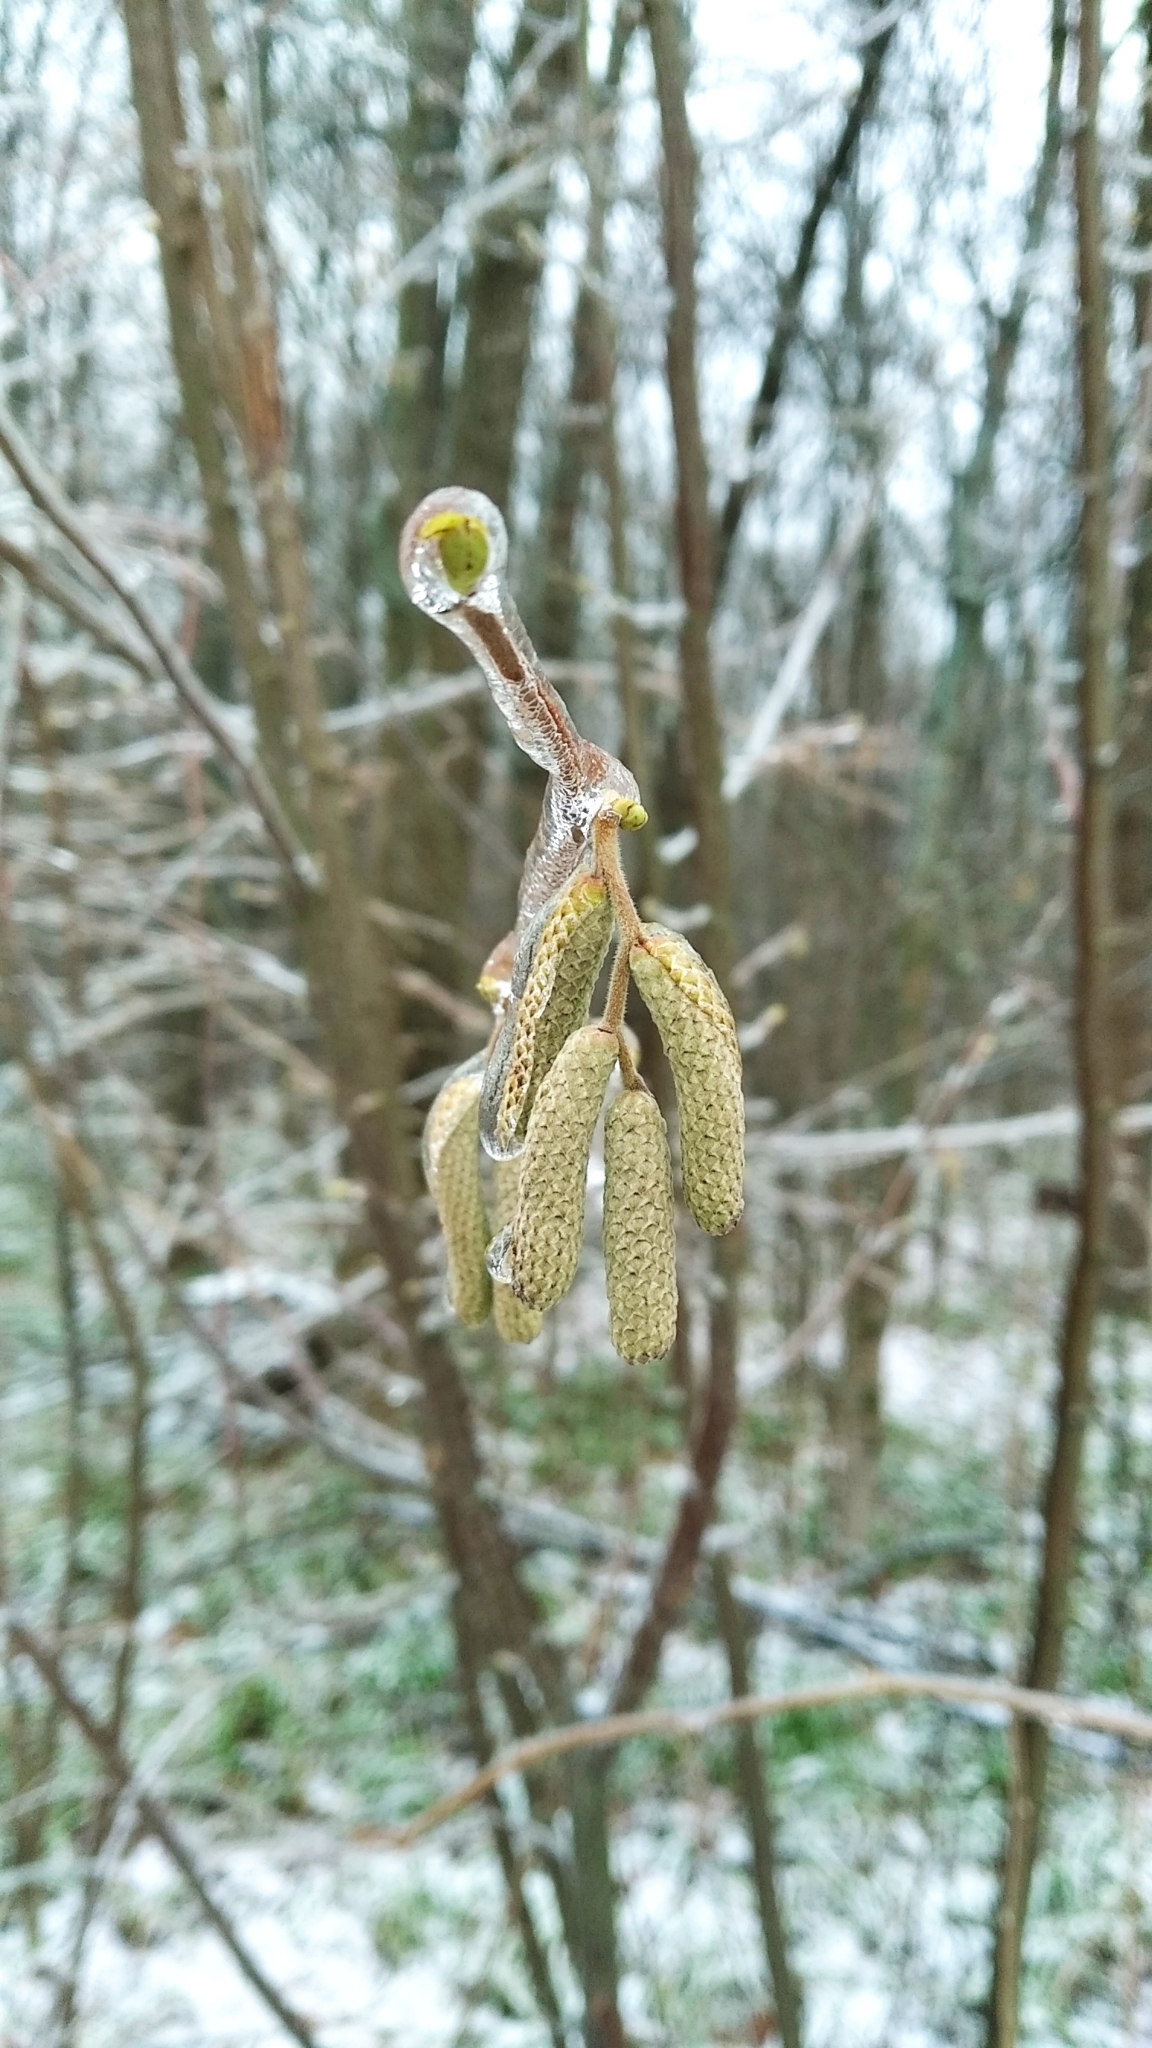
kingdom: Plantae
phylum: Tracheophyta
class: Magnoliopsida
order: Fagales
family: Betulaceae
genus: Corylus
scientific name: Corylus avellana
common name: European hazel
